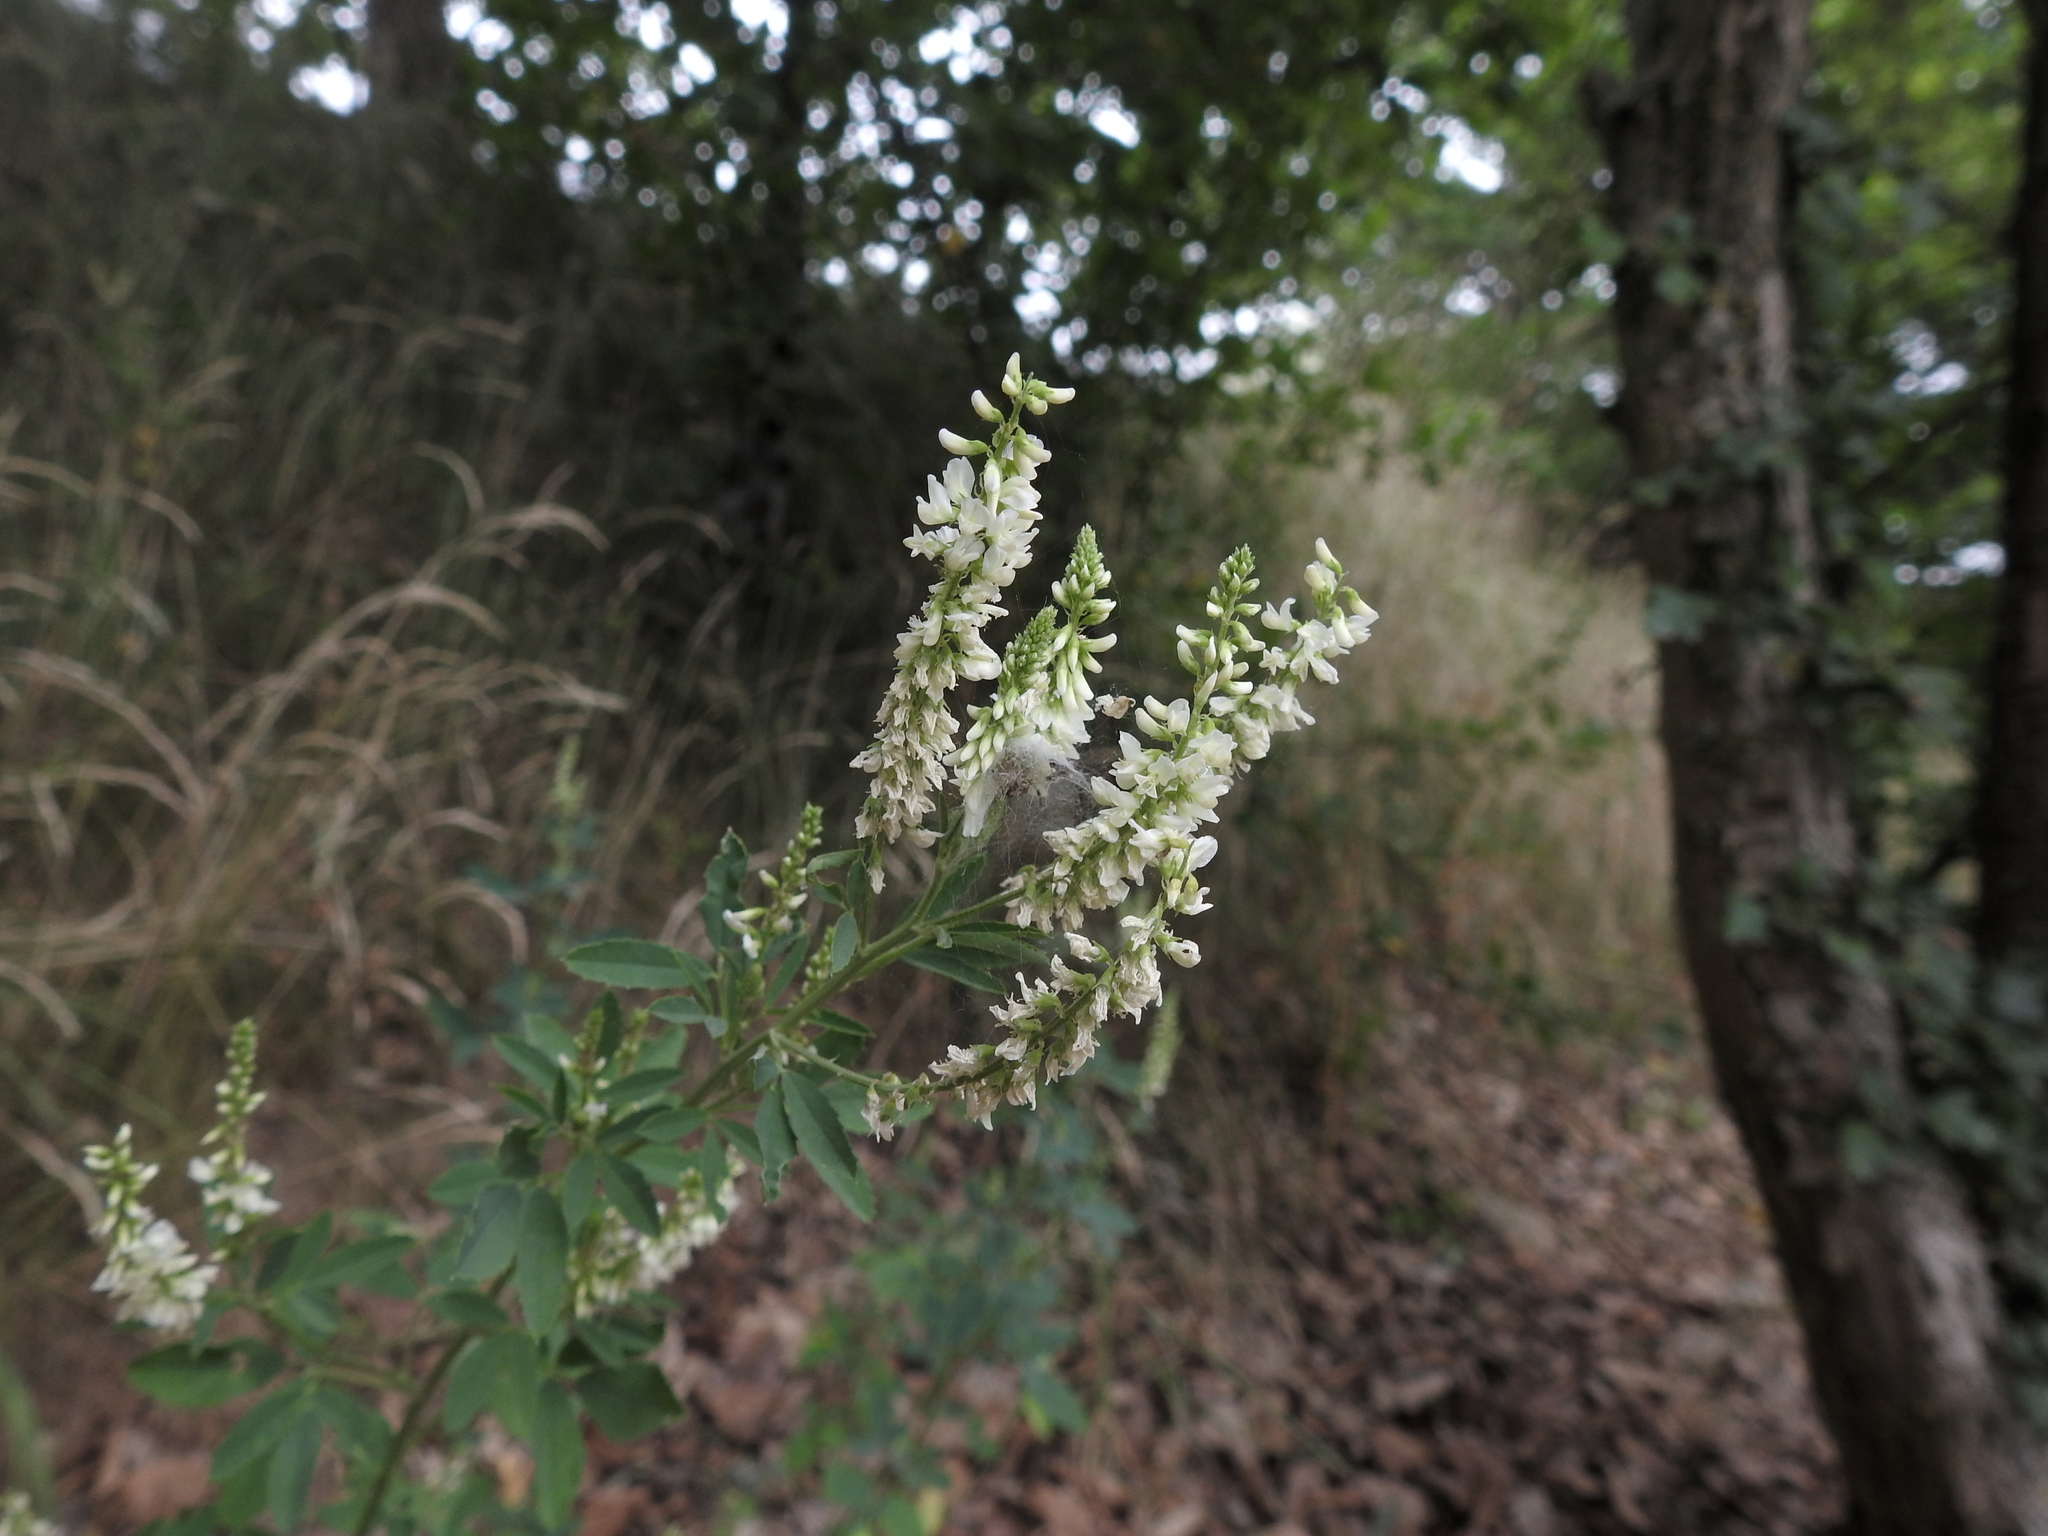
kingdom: Plantae
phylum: Tracheophyta
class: Magnoliopsida
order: Fabales
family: Fabaceae
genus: Melilotus
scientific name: Melilotus albus
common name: White melilot
